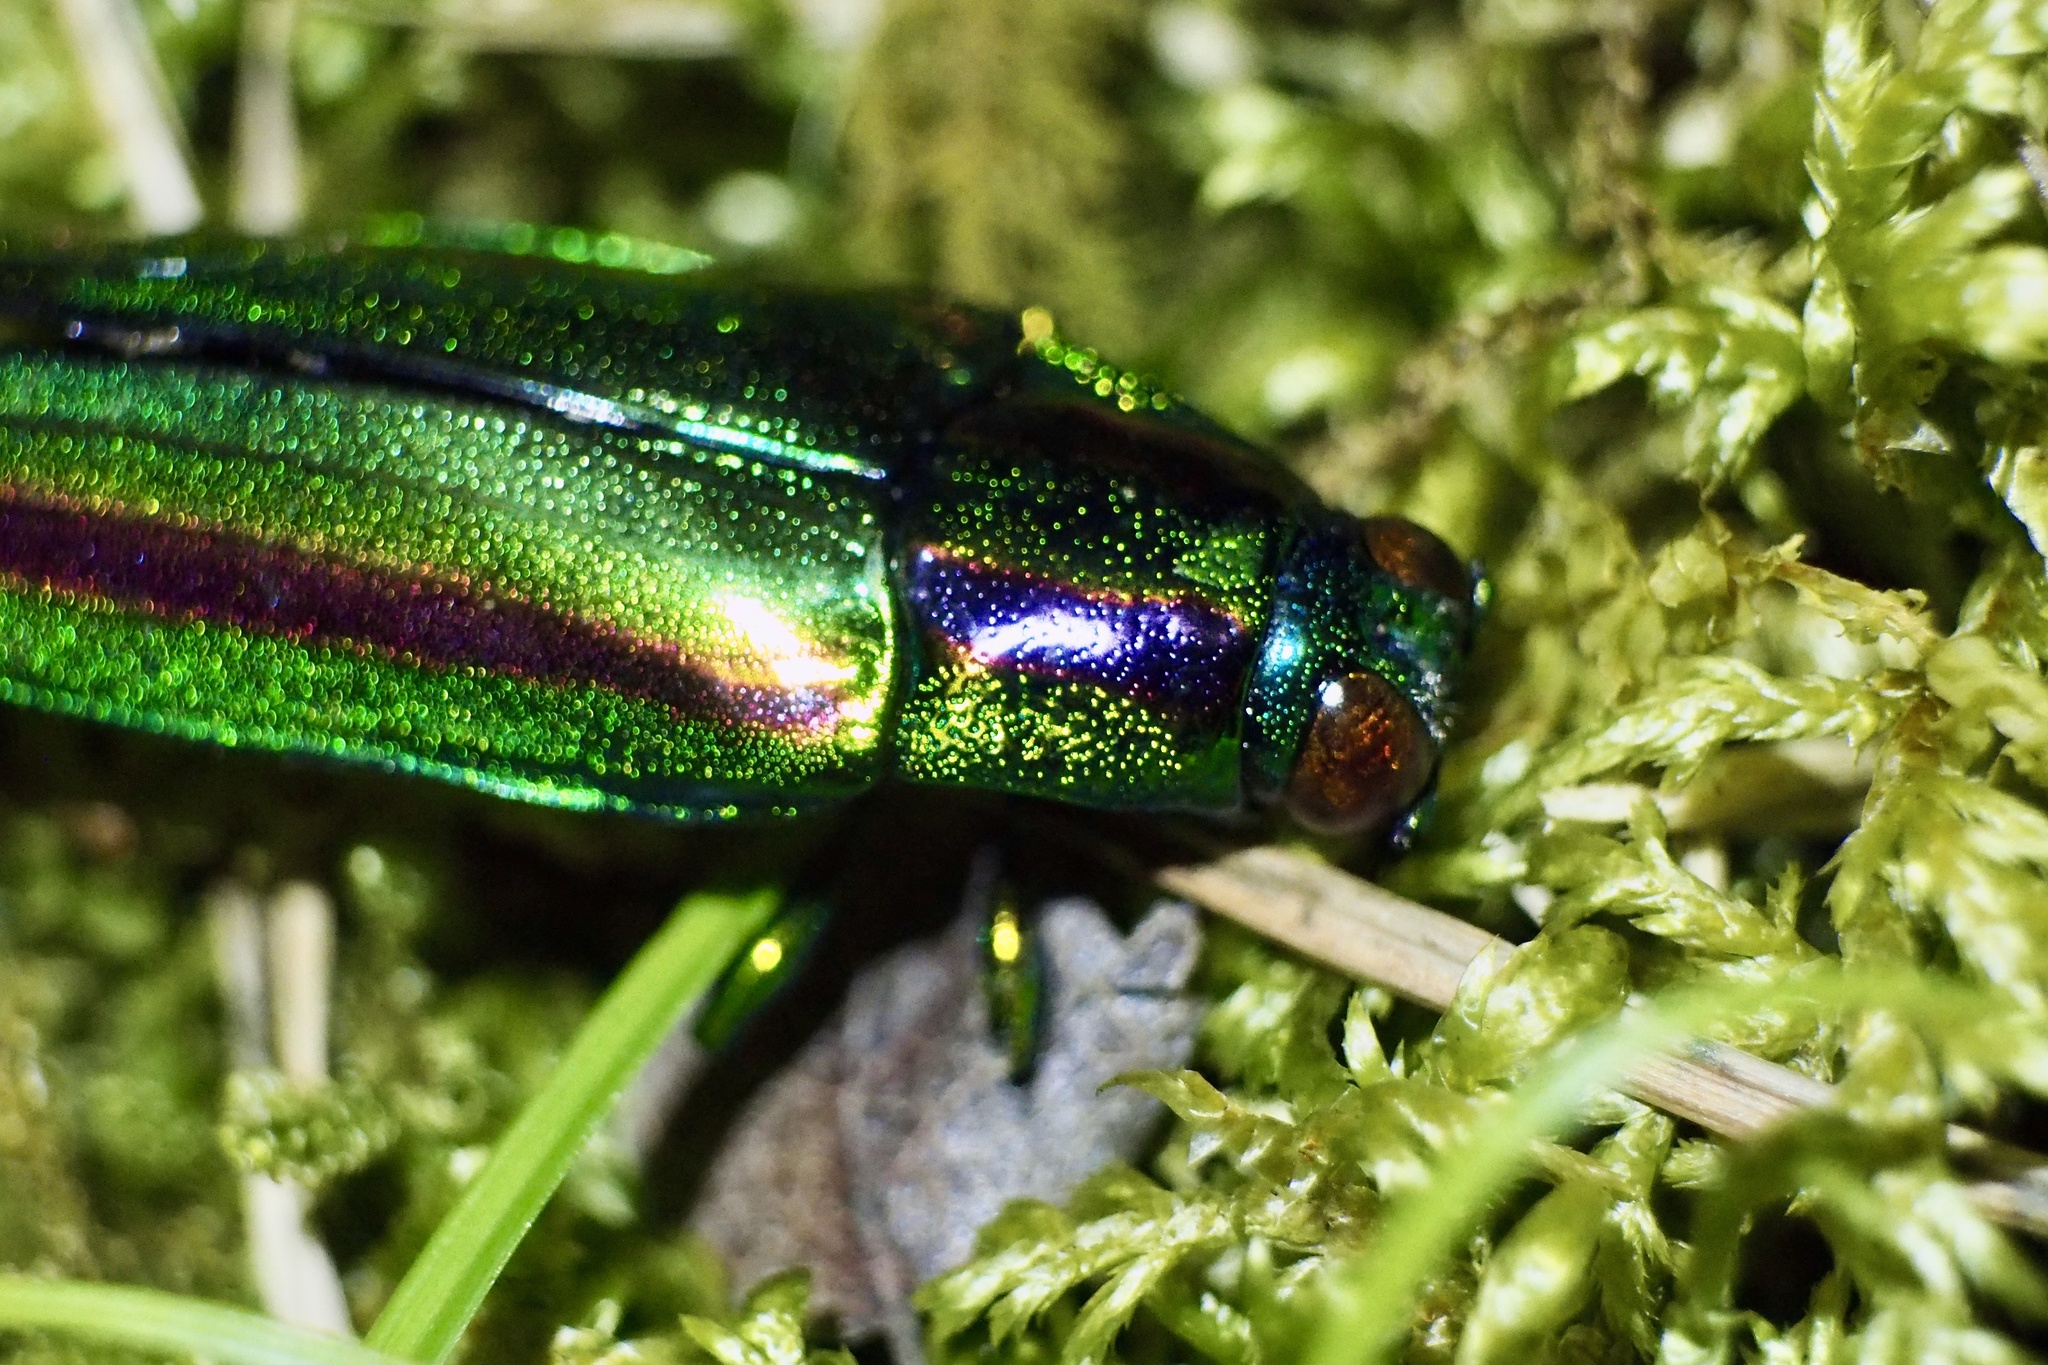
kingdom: Animalia
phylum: Arthropoda
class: Insecta
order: Coleoptera
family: Buprestidae
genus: Chrysochroa
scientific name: Chrysochroa fulgidissima
